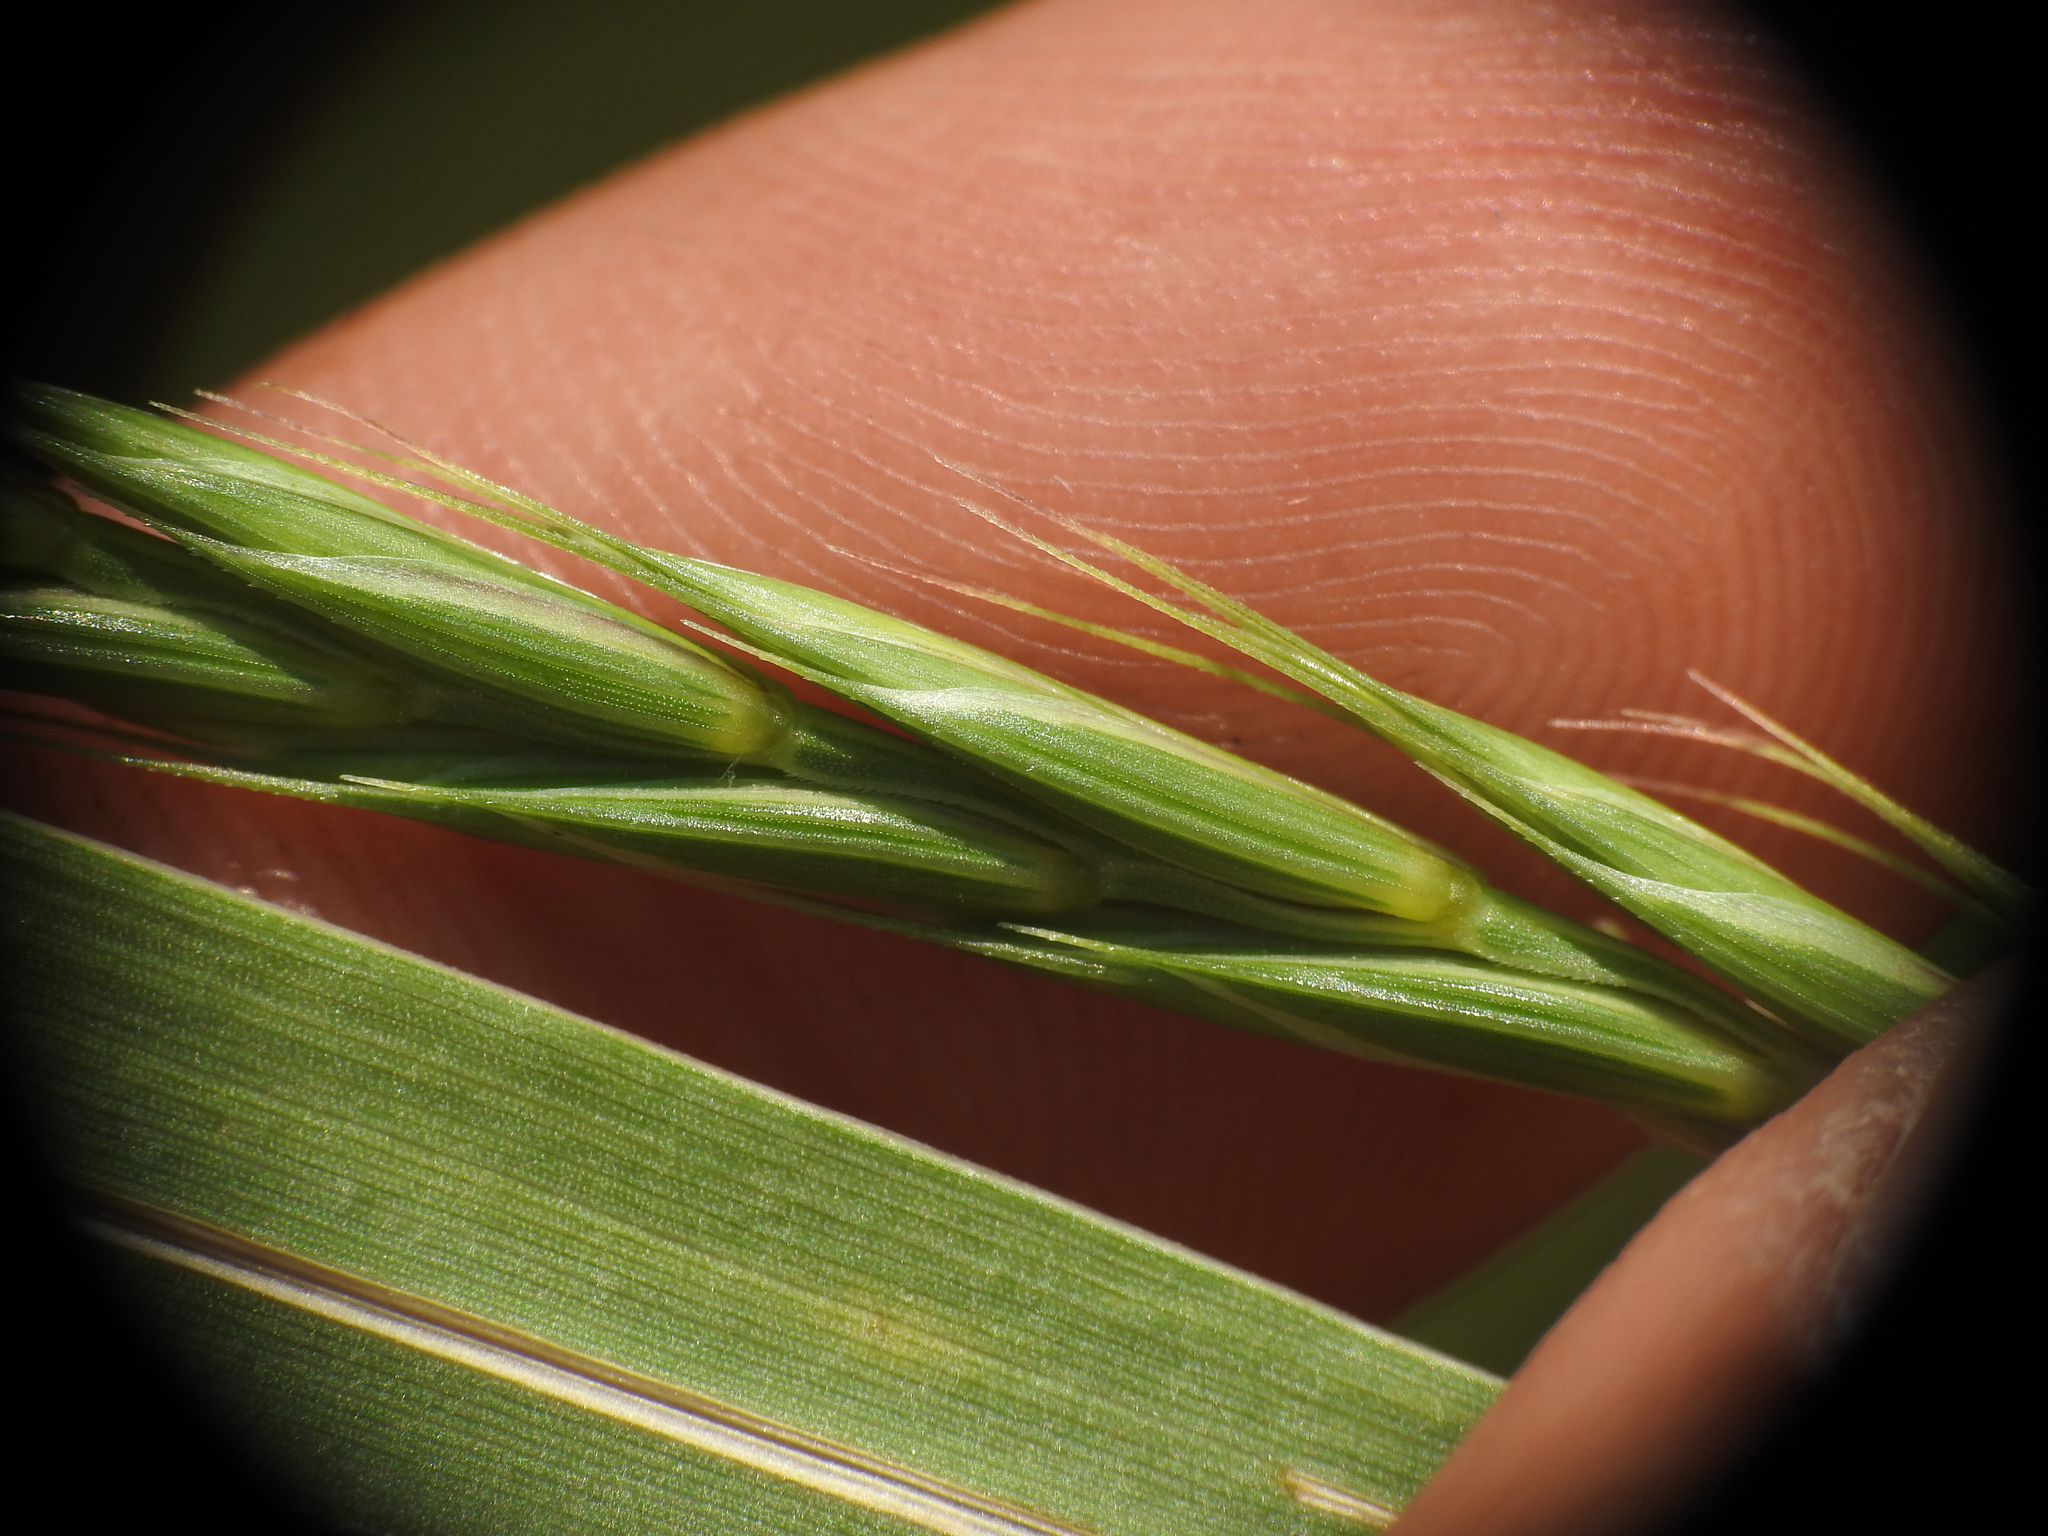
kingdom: Plantae
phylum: Tracheophyta
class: Liliopsida
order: Poales
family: Poaceae
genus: Elymus
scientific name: Elymus caninus
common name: Bearded couch
